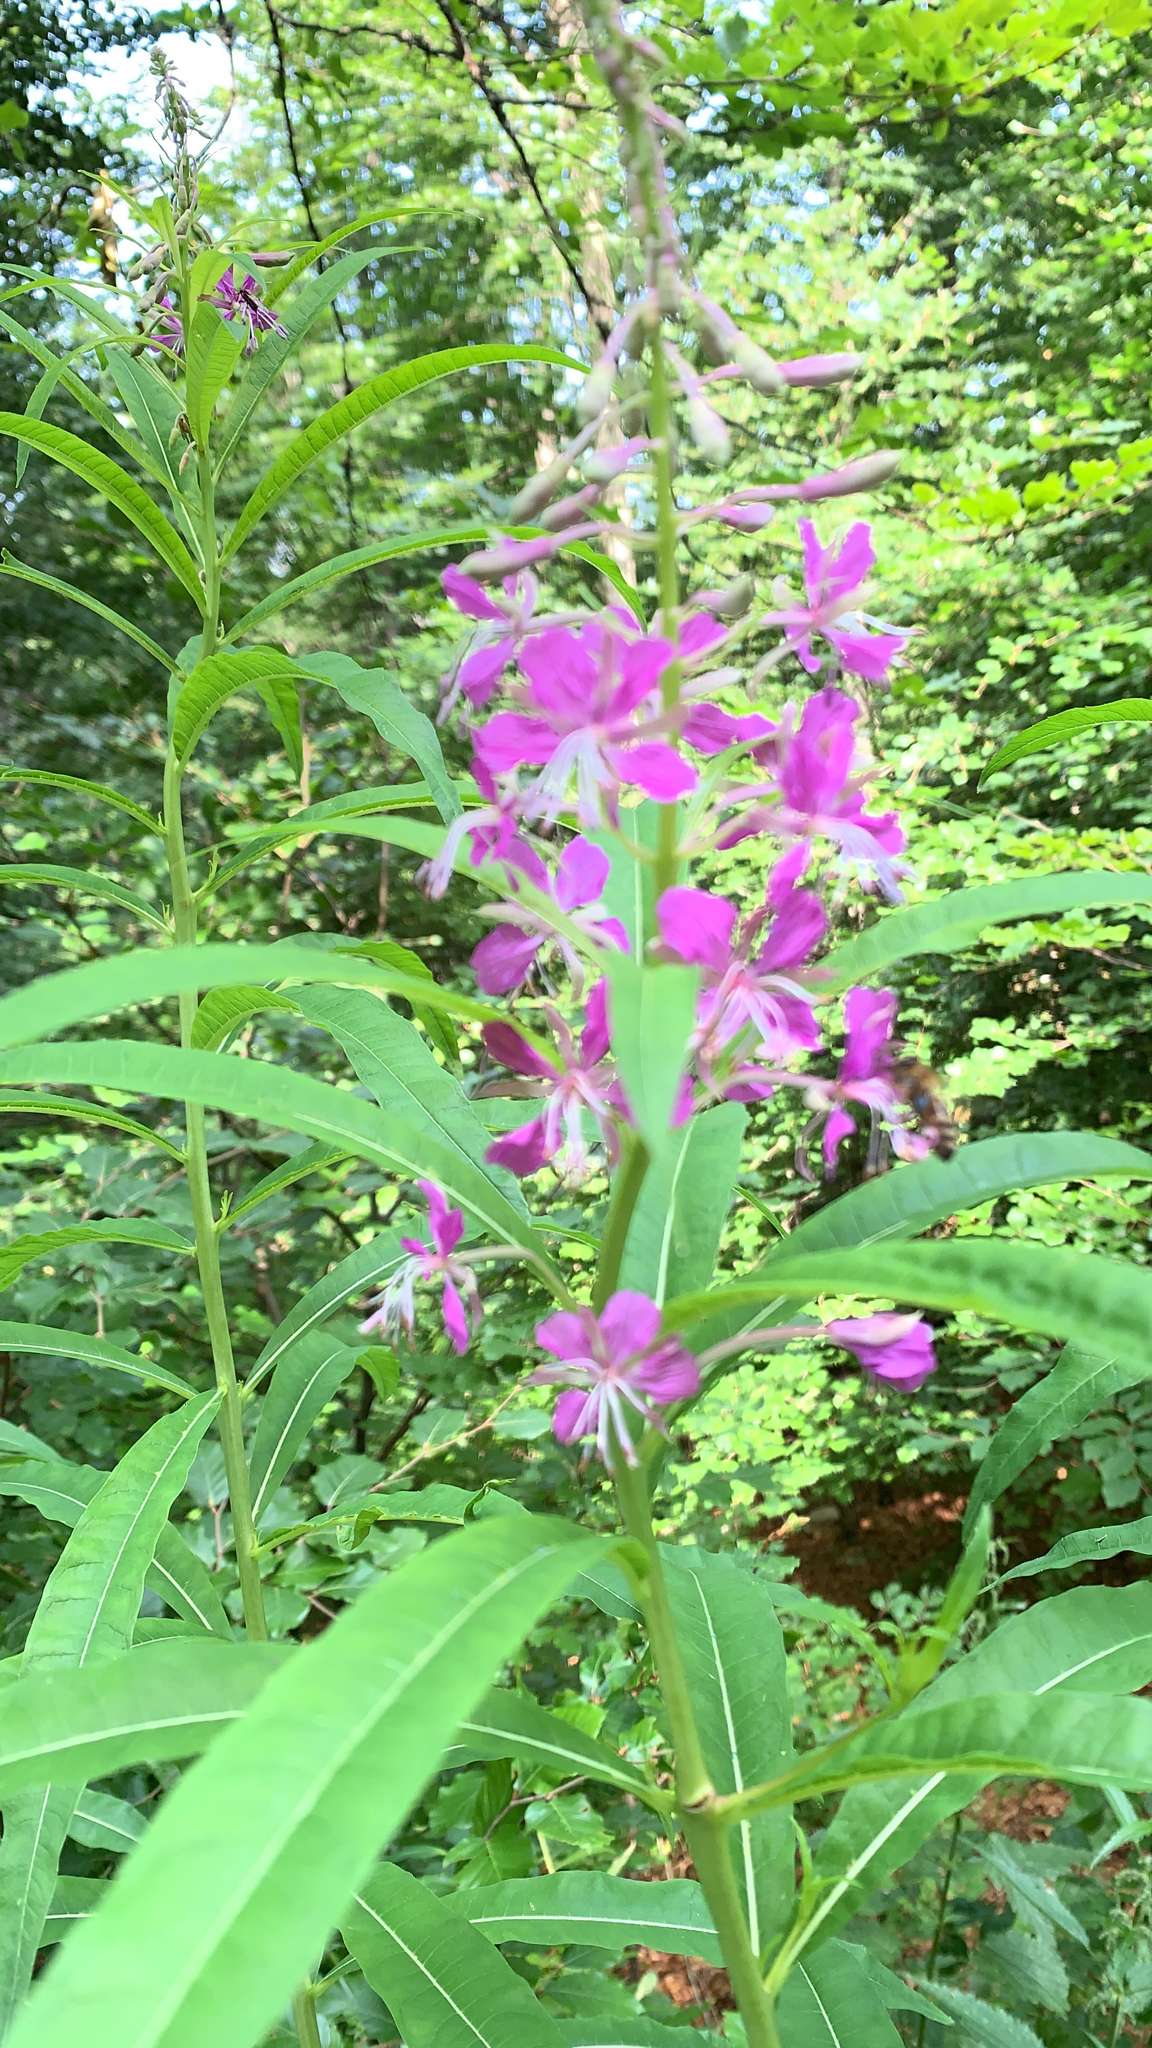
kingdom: Plantae
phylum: Tracheophyta
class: Magnoliopsida
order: Myrtales
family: Onagraceae
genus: Chamaenerion
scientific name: Chamaenerion angustifolium
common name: Fireweed
